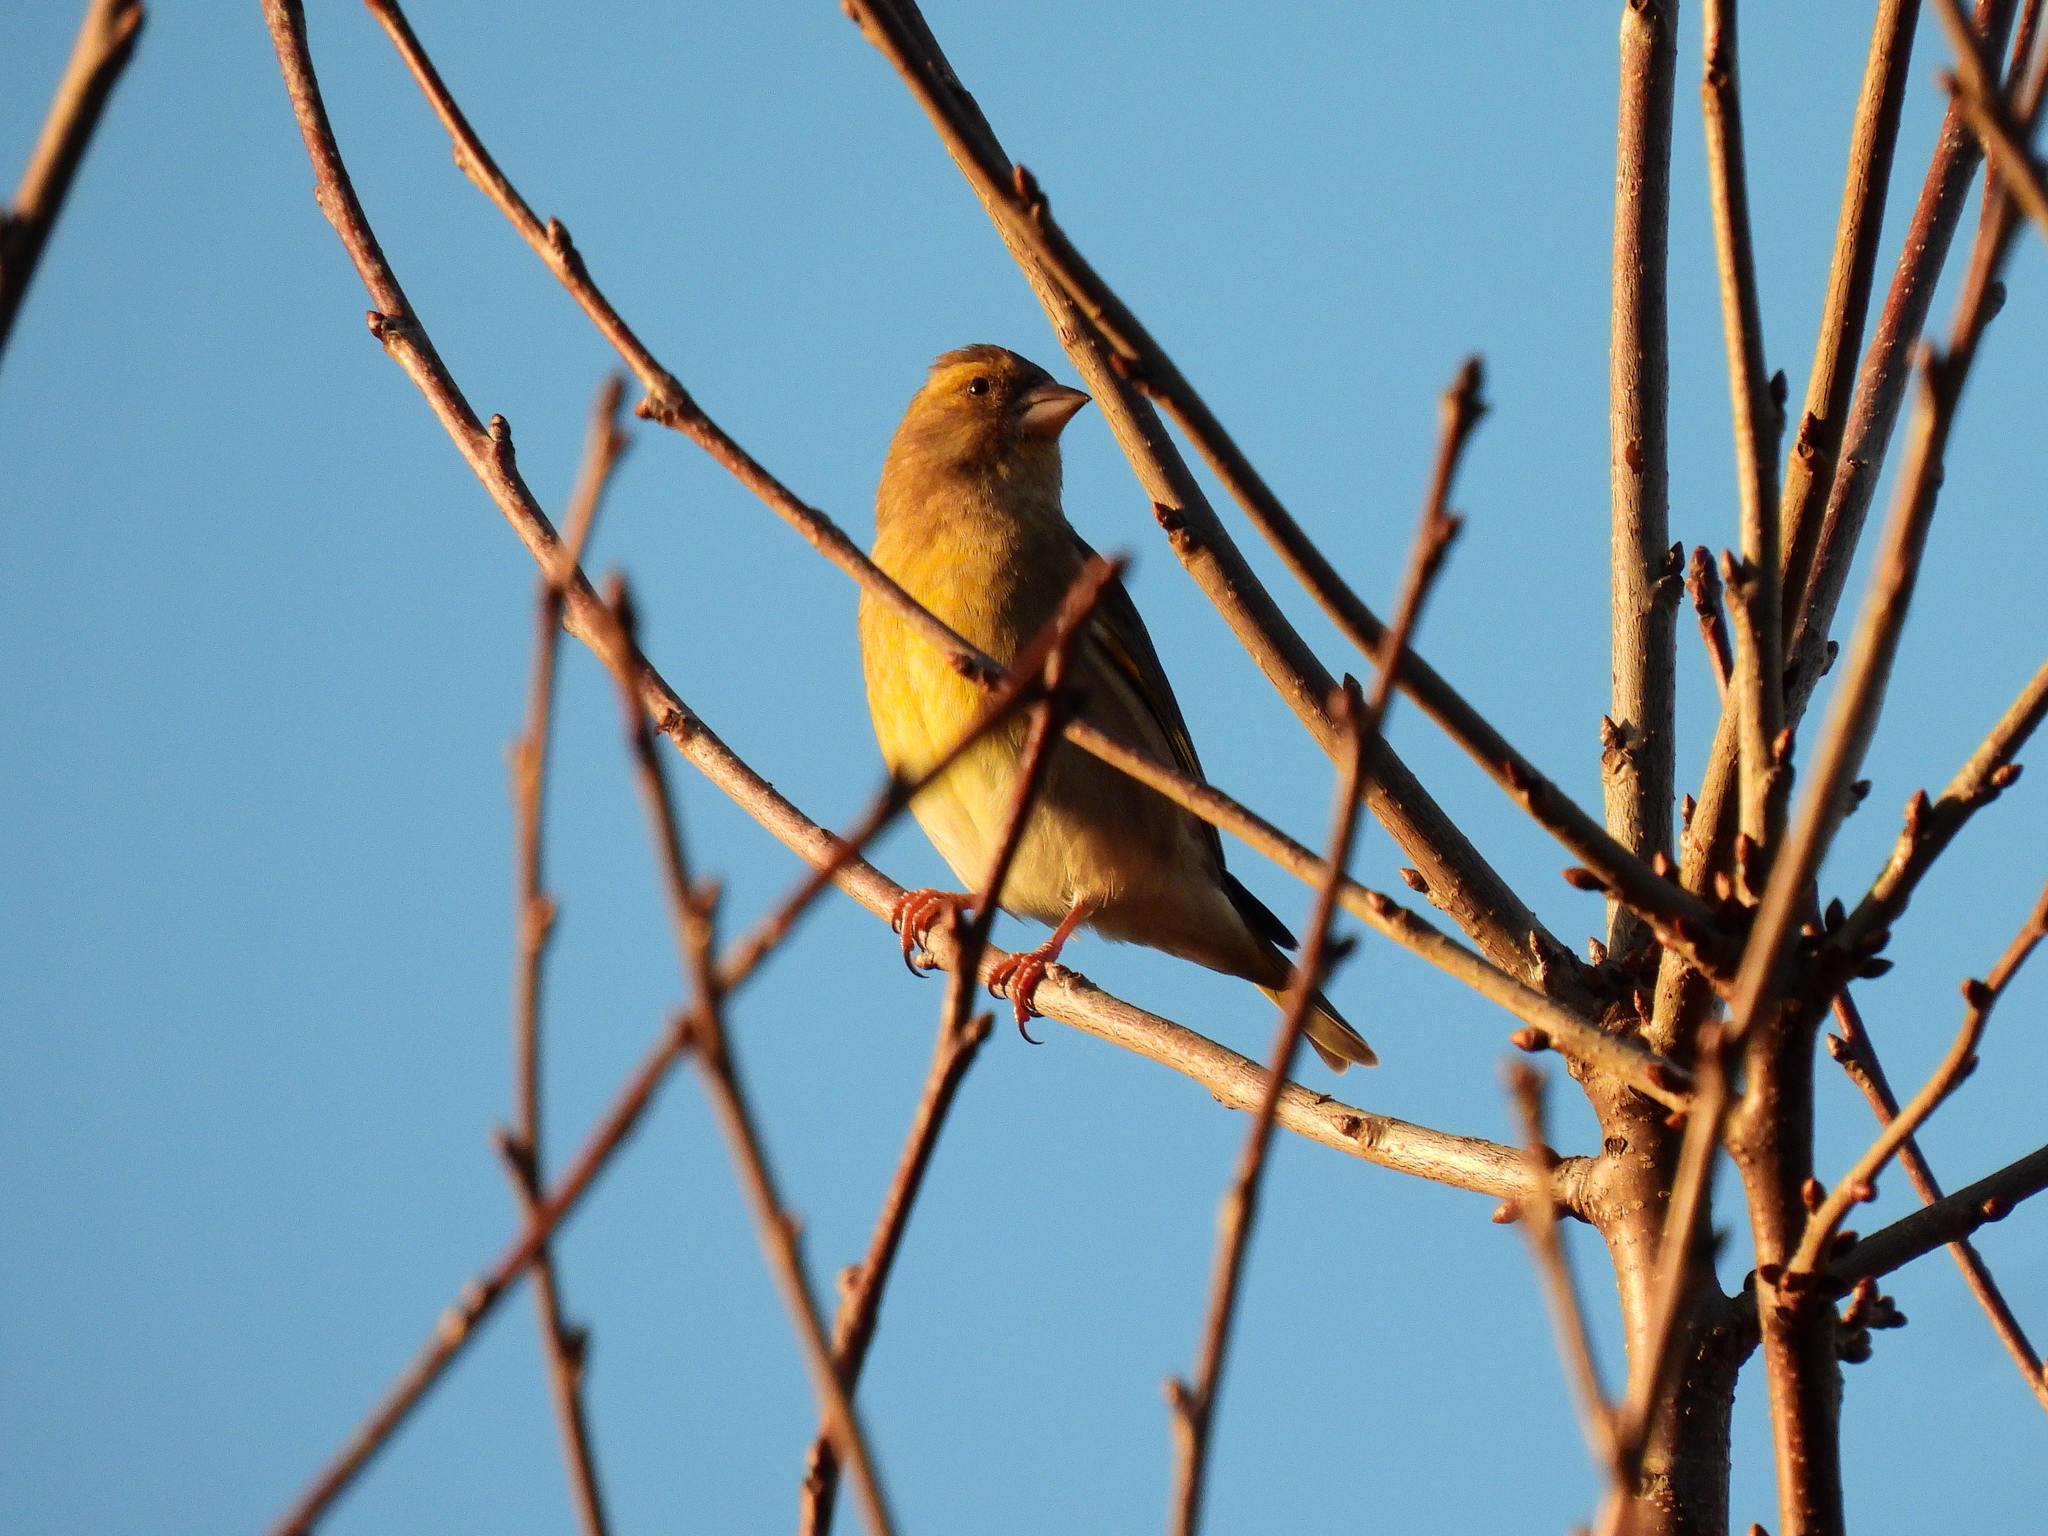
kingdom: Plantae
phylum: Tracheophyta
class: Liliopsida
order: Poales
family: Poaceae
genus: Chloris
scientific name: Chloris chloris
